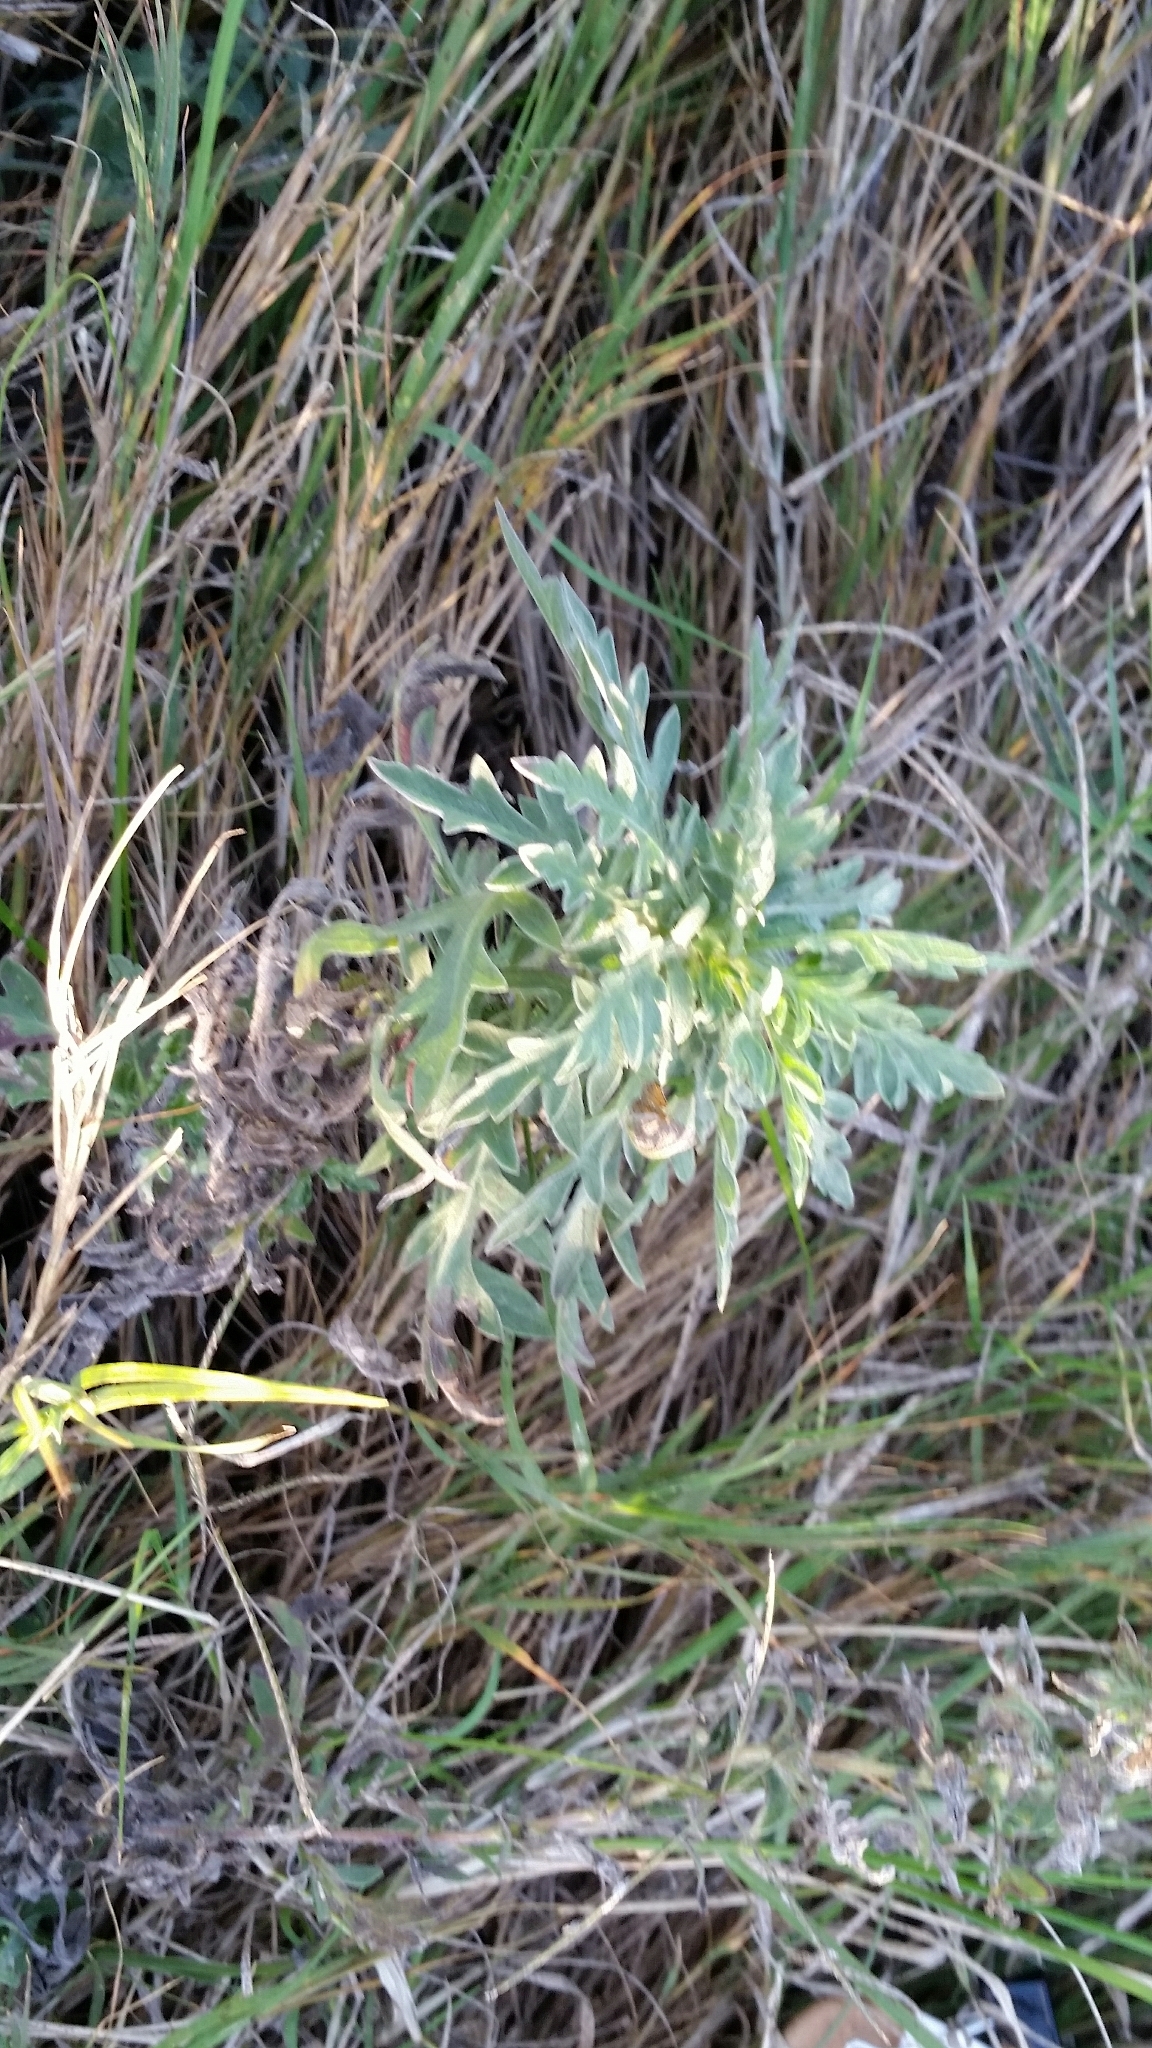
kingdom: Plantae
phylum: Tracheophyta
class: Magnoliopsida
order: Asterales
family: Asteraceae
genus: Ambrosia
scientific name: Ambrosia psilostachya
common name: Perennial ragweed
